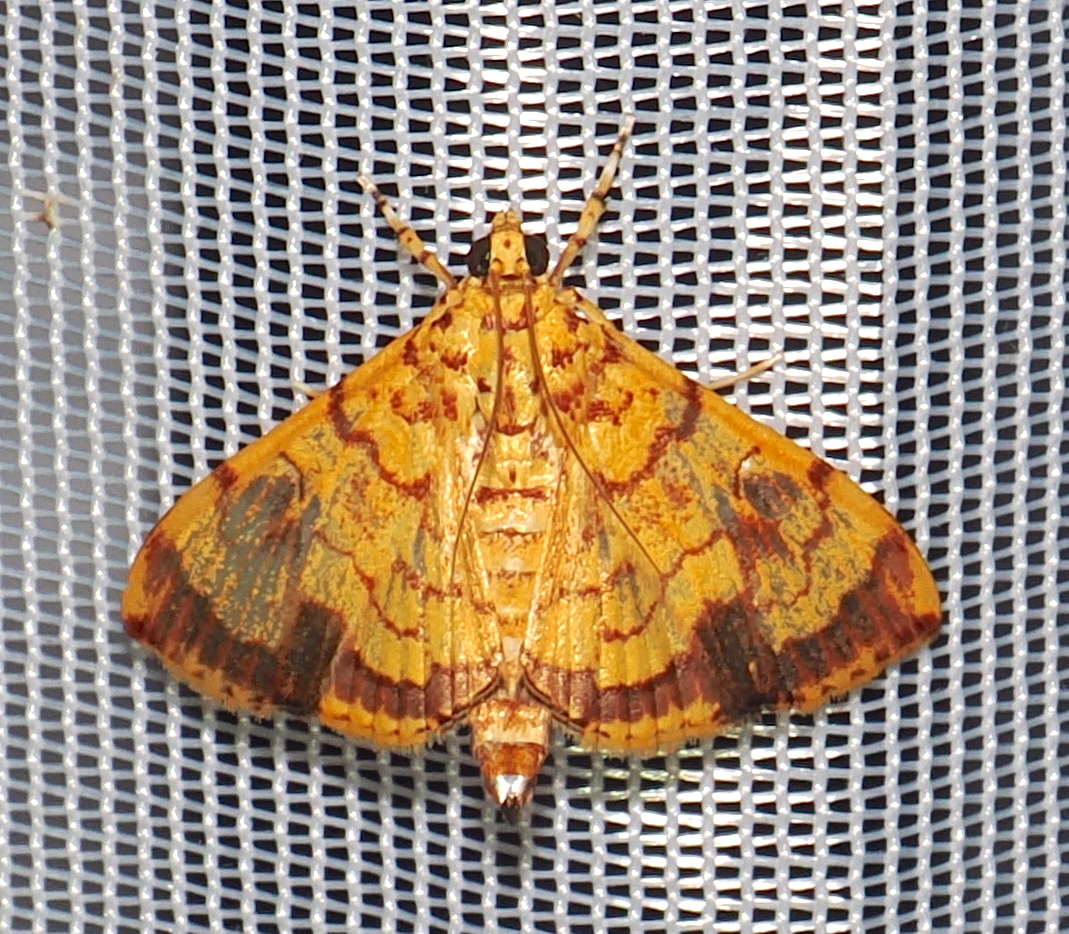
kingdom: Animalia
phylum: Arthropoda
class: Insecta
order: Lepidoptera
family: Crambidae
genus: Portentomorpha
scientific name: Portentomorpha xanthialis
